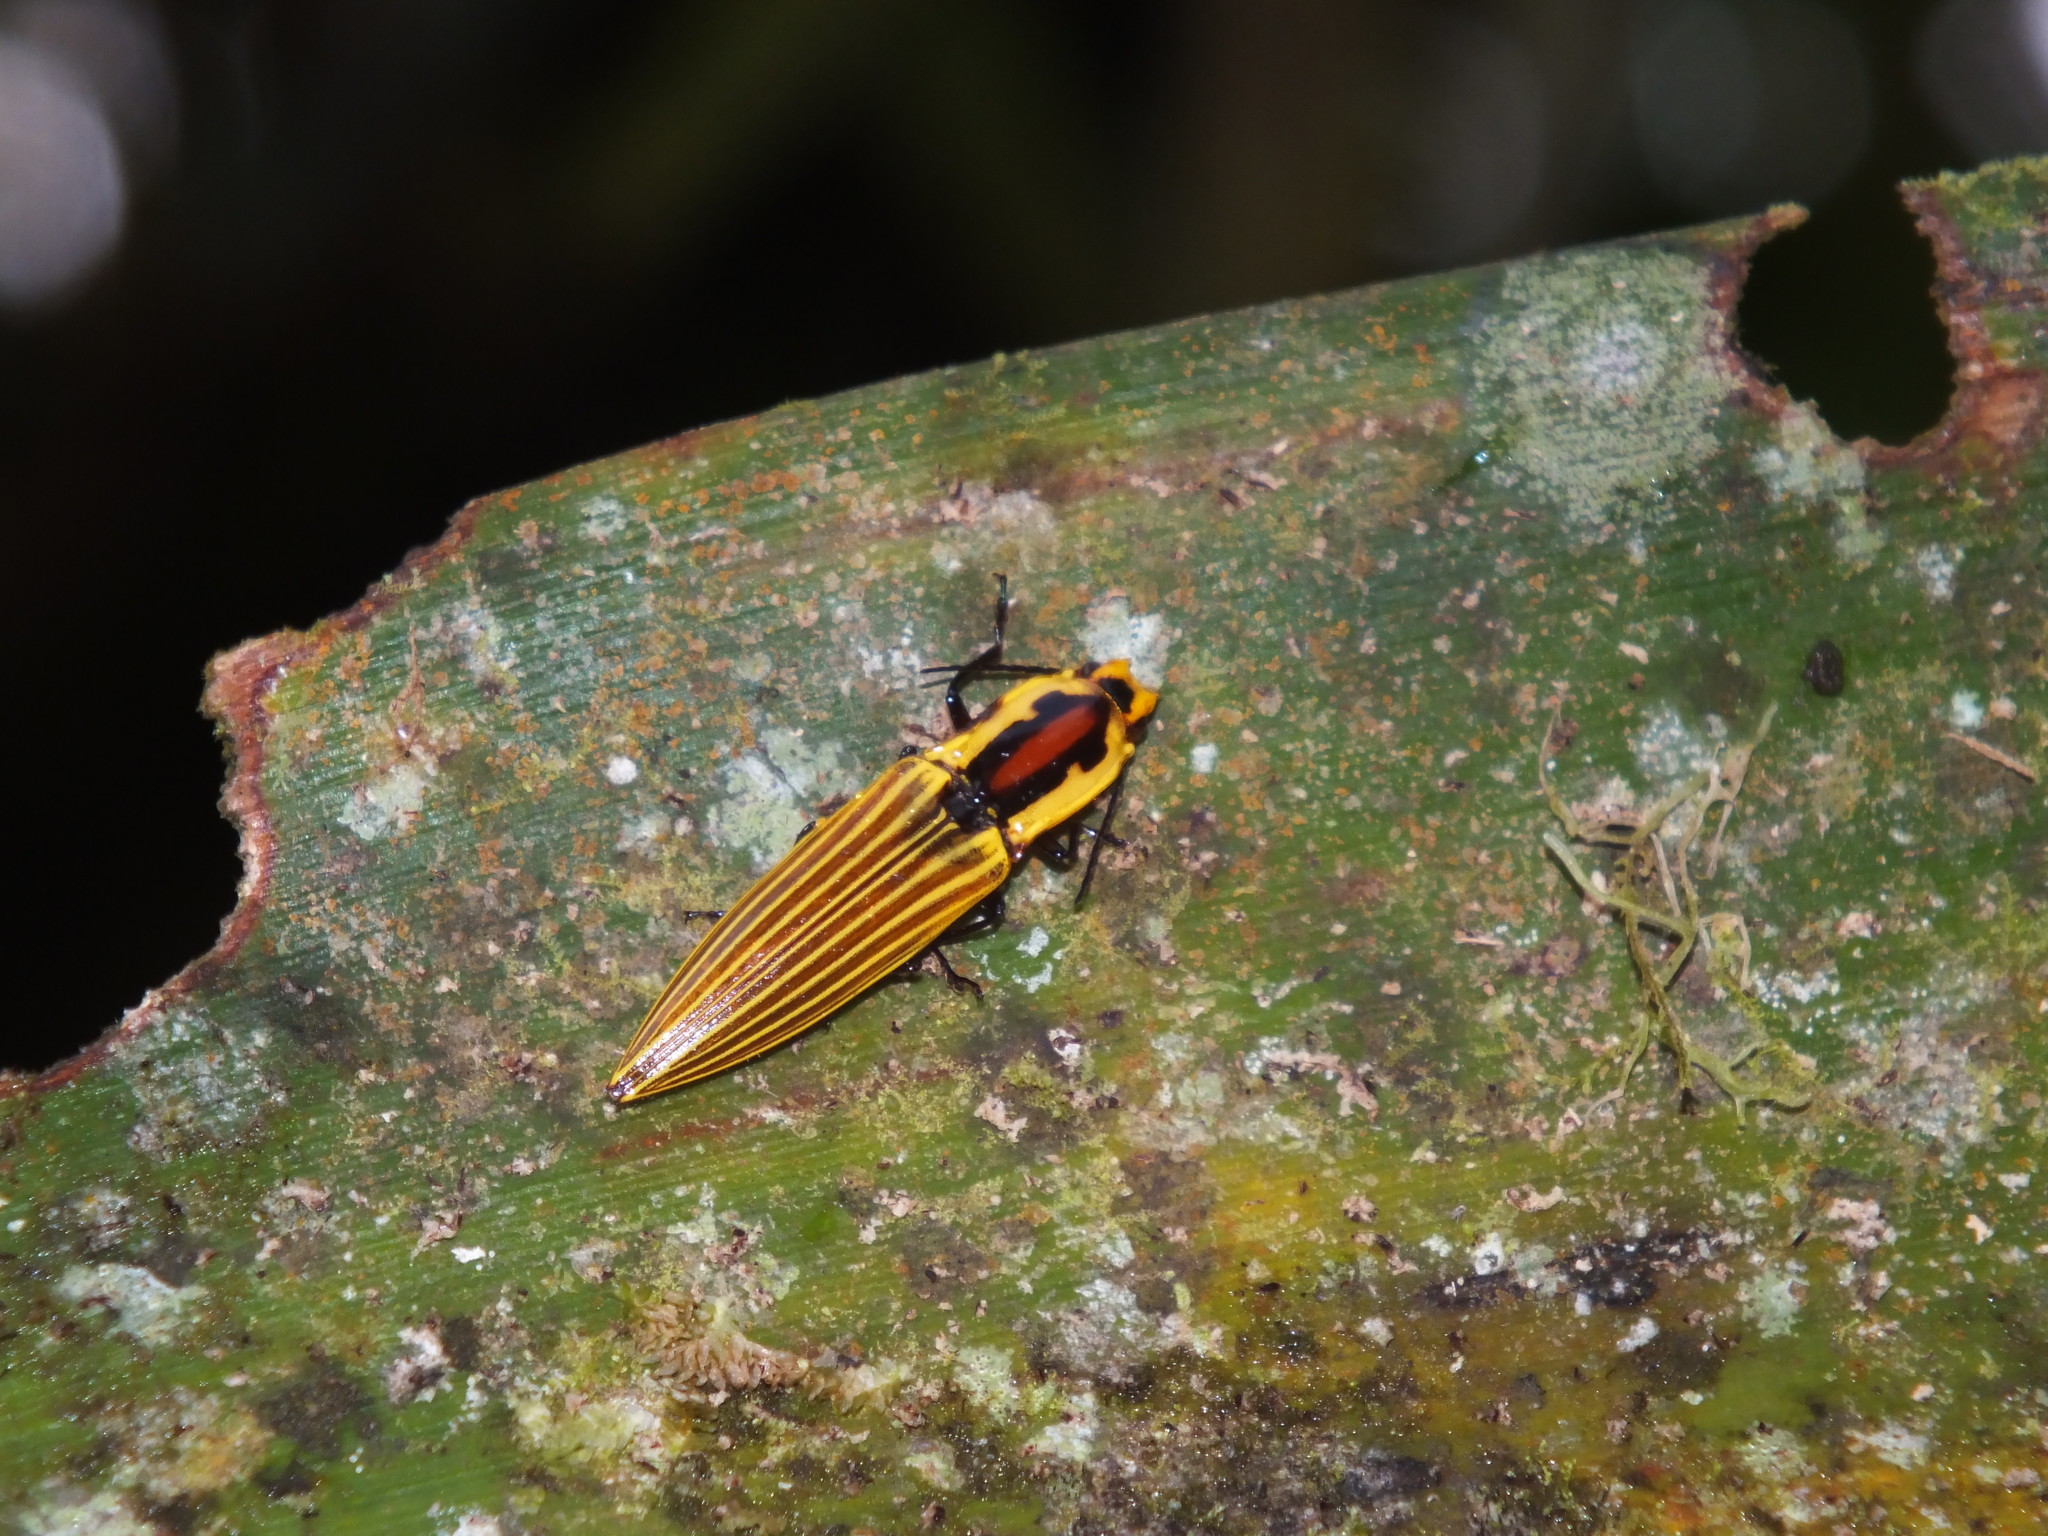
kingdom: Animalia
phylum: Arthropoda
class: Insecta
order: Coleoptera
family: Elateridae
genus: Semiotus
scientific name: Semiotus
